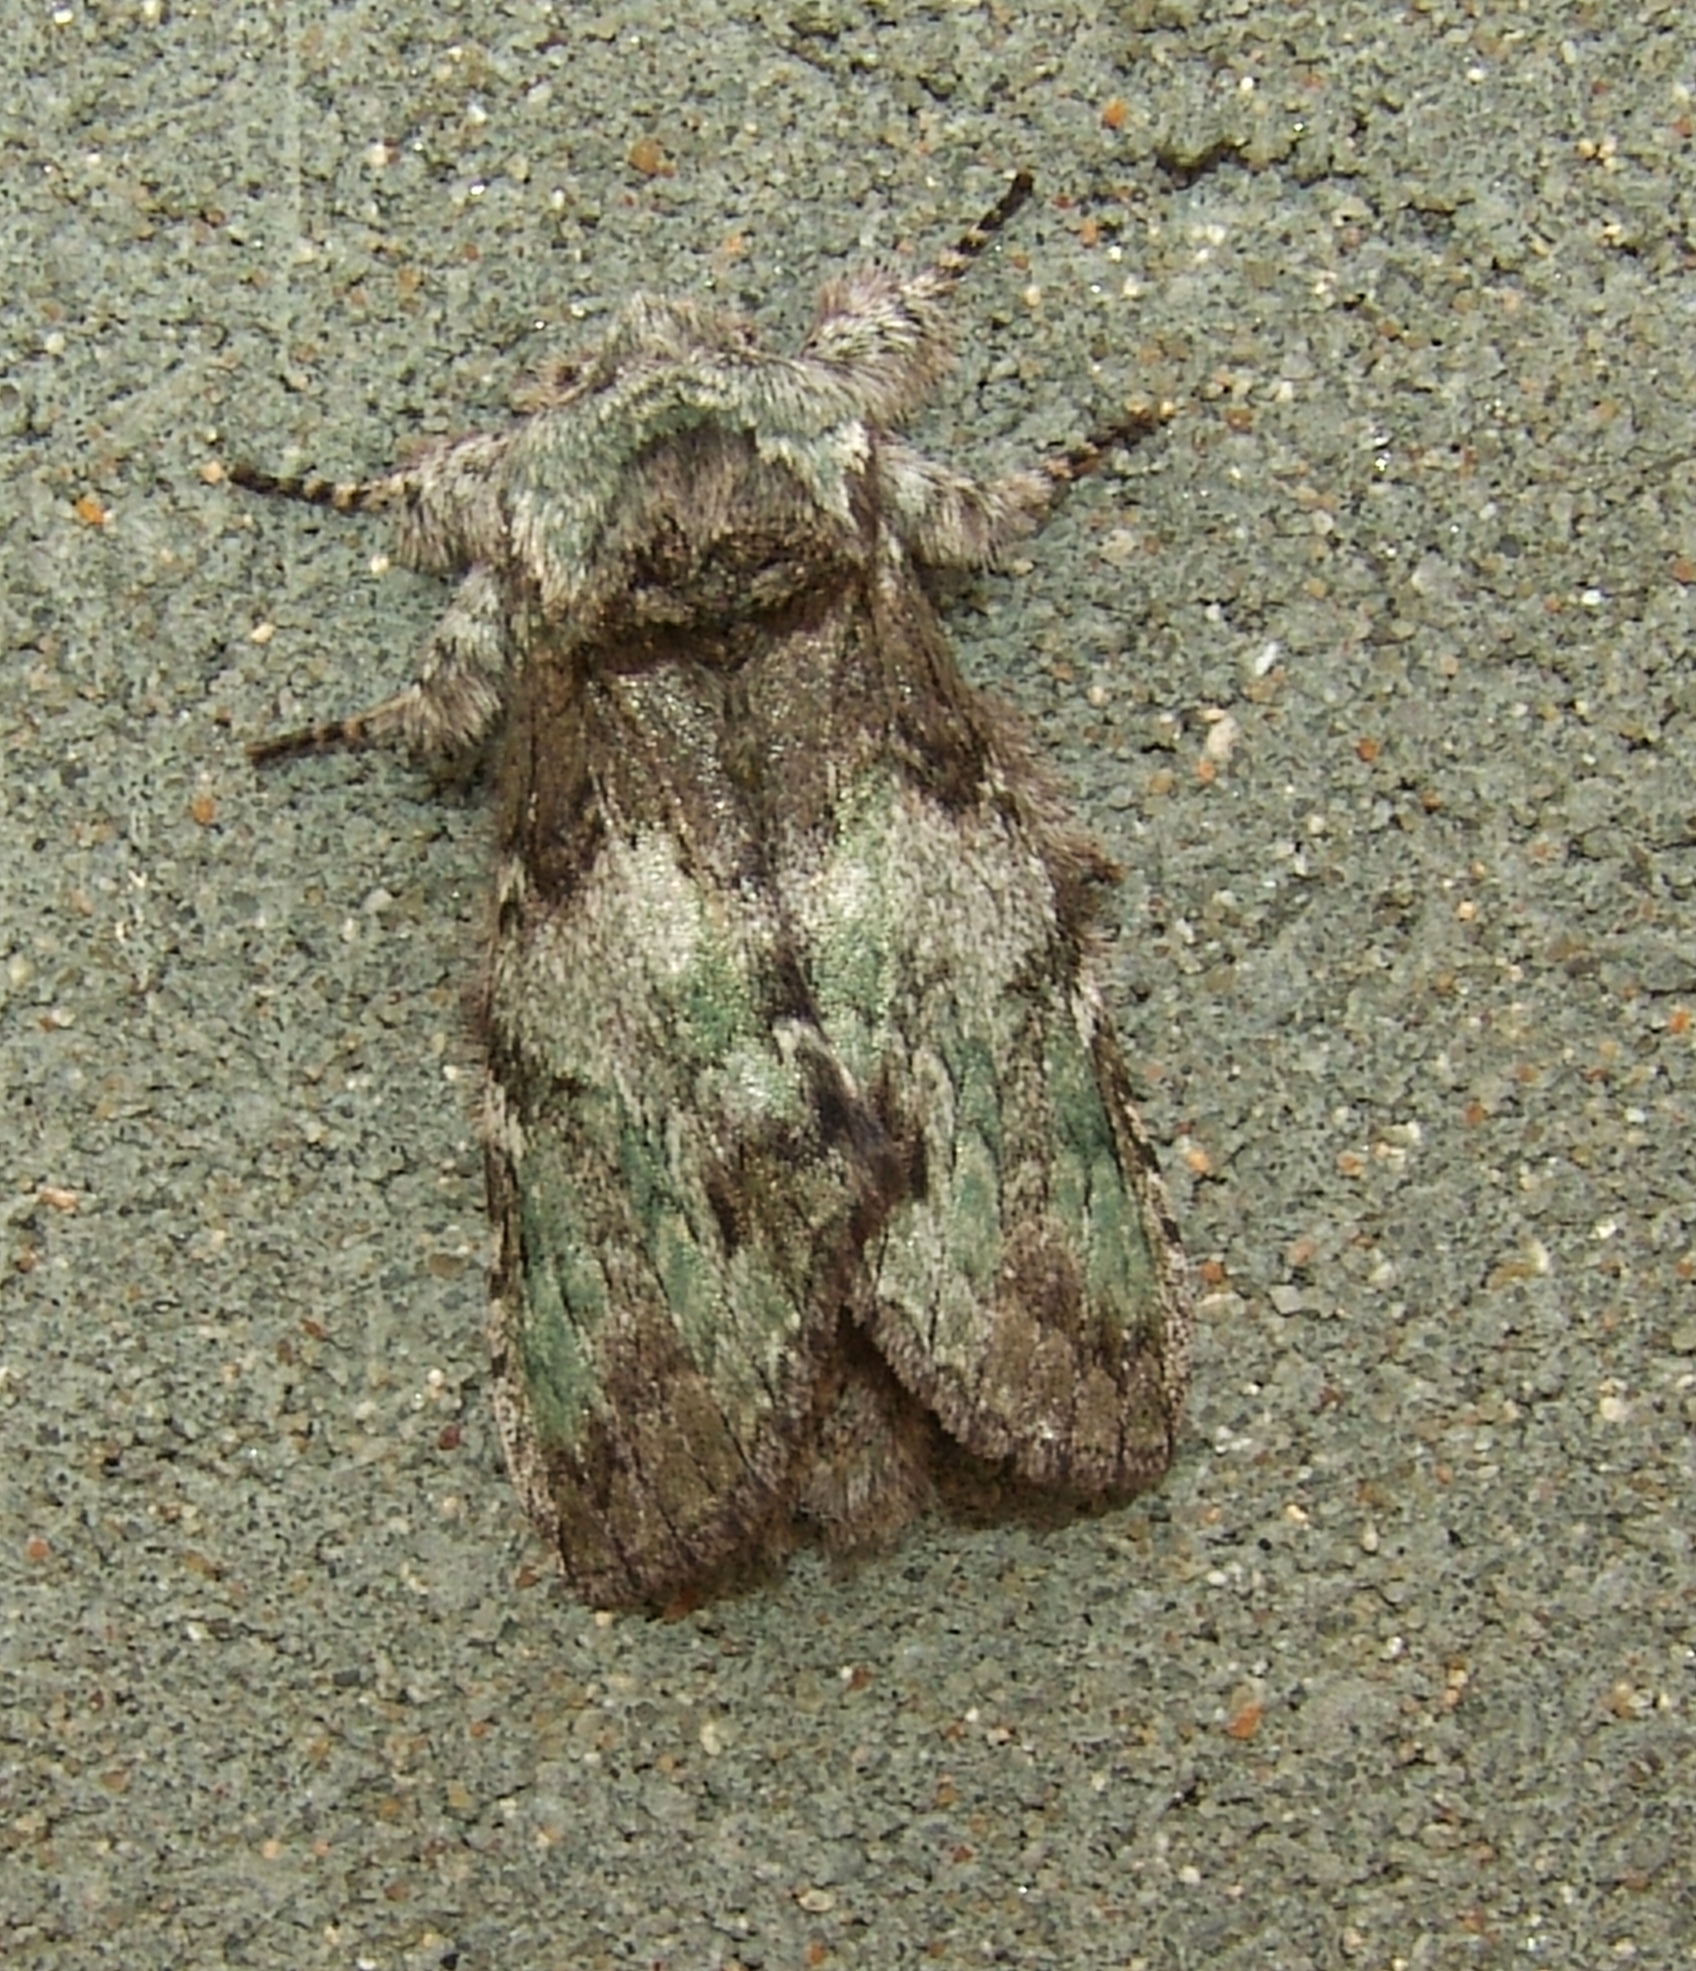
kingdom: Animalia
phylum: Arthropoda
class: Insecta
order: Lepidoptera
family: Notodontidae
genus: Macrurocampa
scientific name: Macrurocampa marthesia
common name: Mottled prominent
